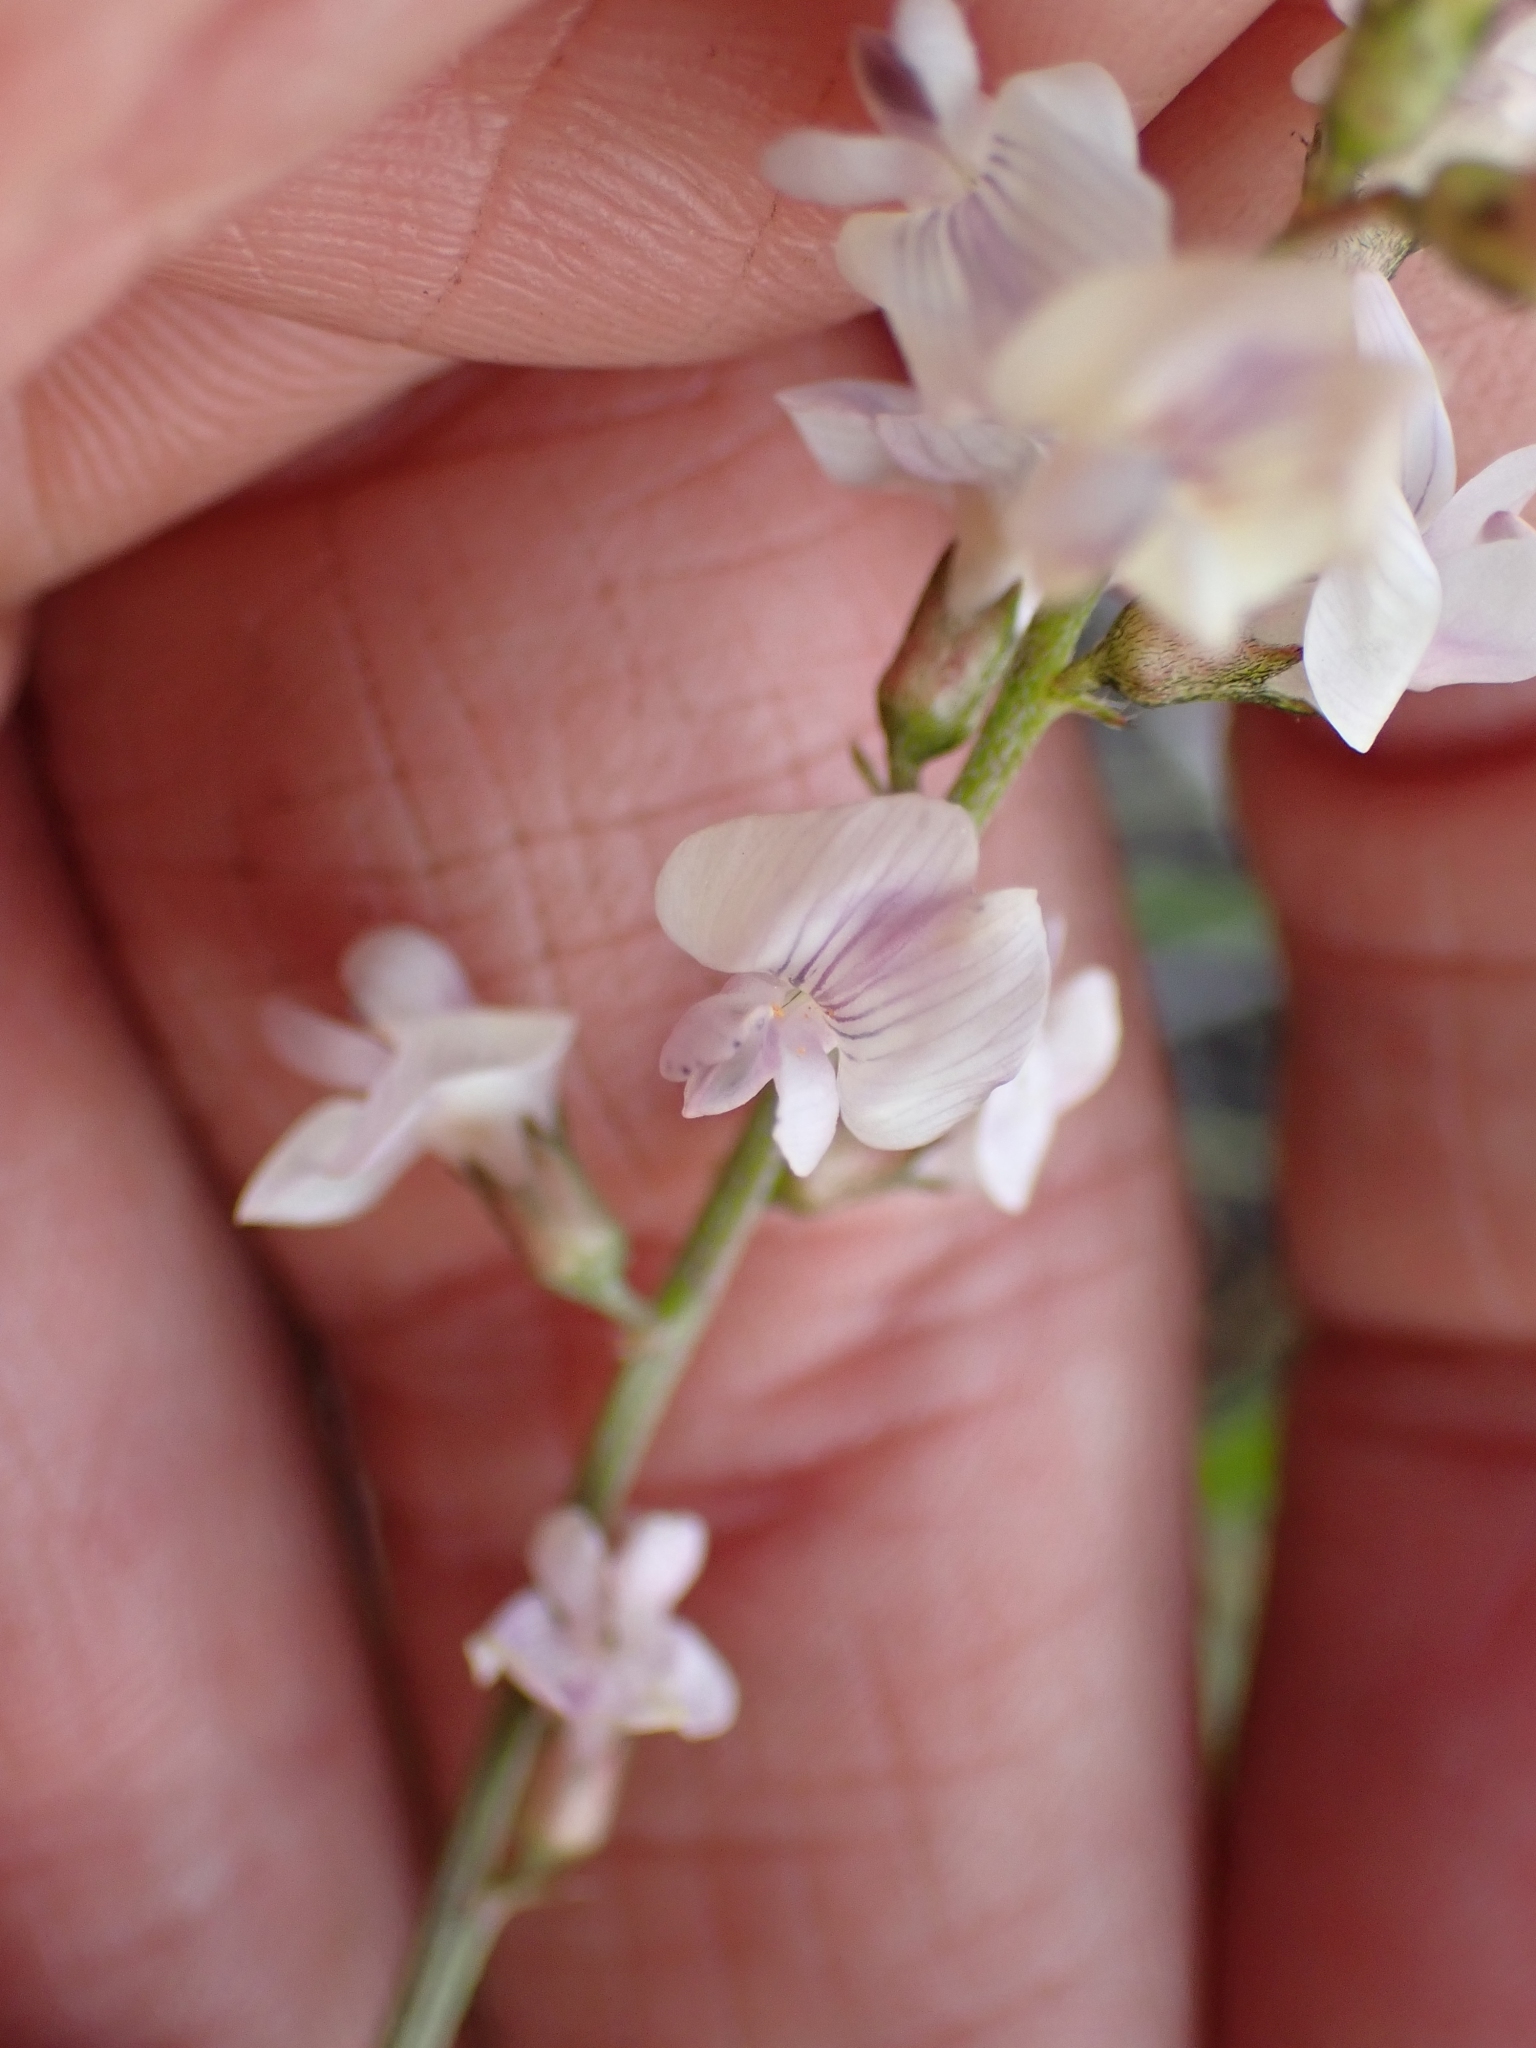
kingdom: Plantae
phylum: Tracheophyta
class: Magnoliopsida
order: Fabales
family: Fabaceae
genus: Astragalus
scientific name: Astragalus miser
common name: Timber milkvetch
